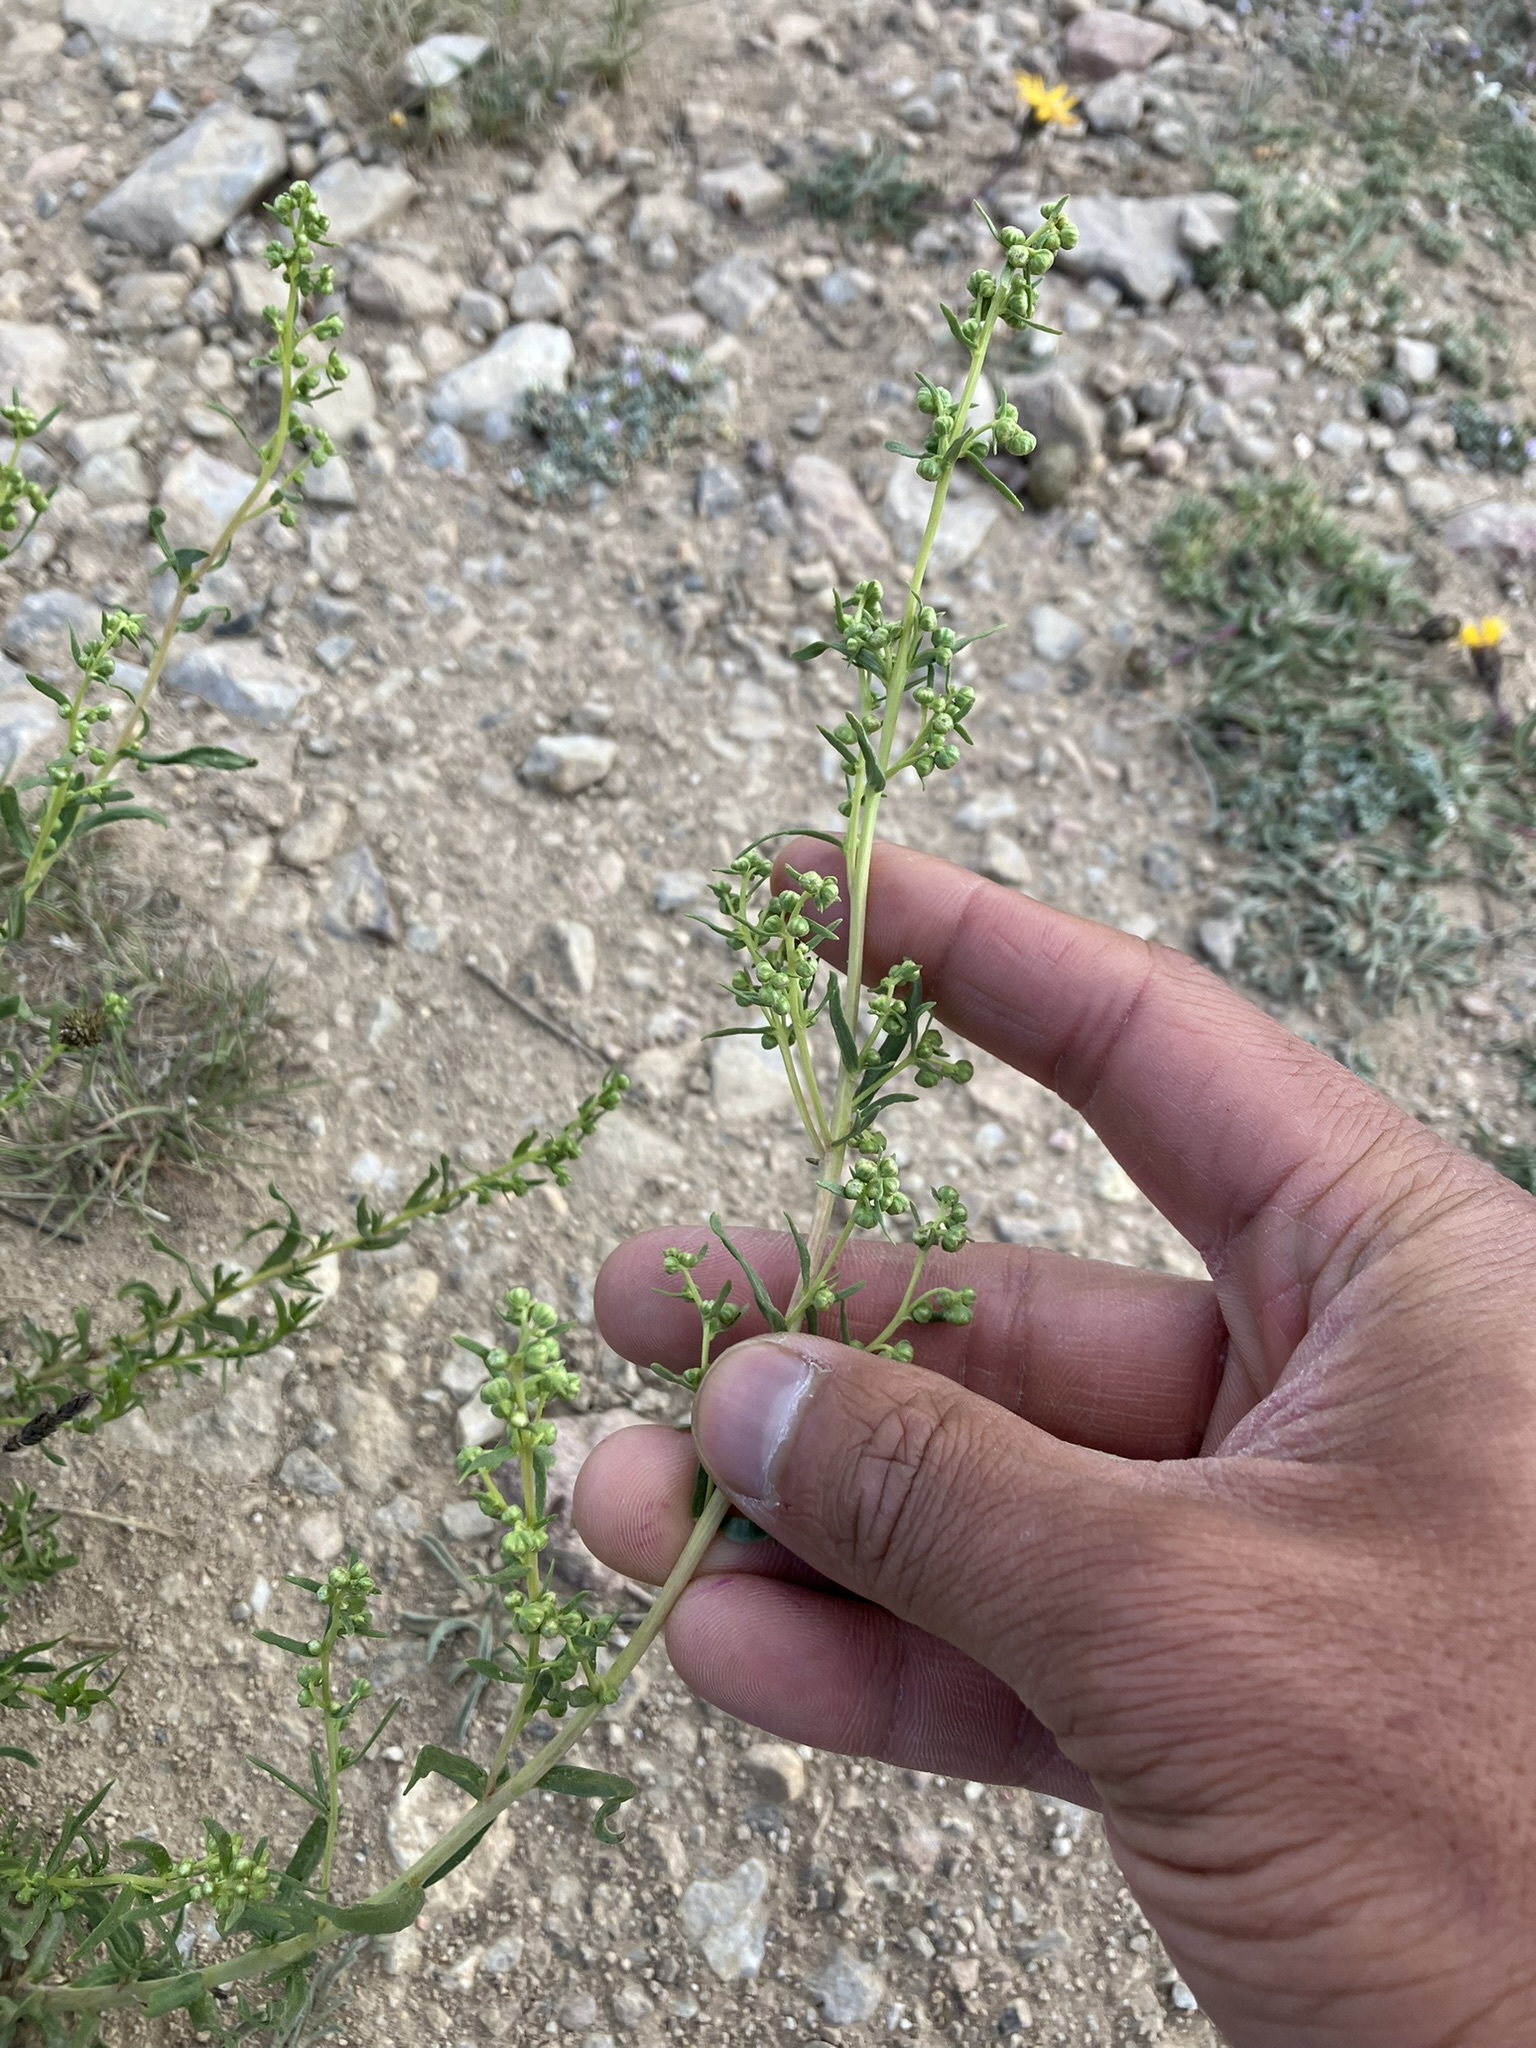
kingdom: Plantae
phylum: Tracheophyta
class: Magnoliopsida
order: Asterales
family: Asteraceae
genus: Artemisia
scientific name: Artemisia dracunculus
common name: Tarragon
